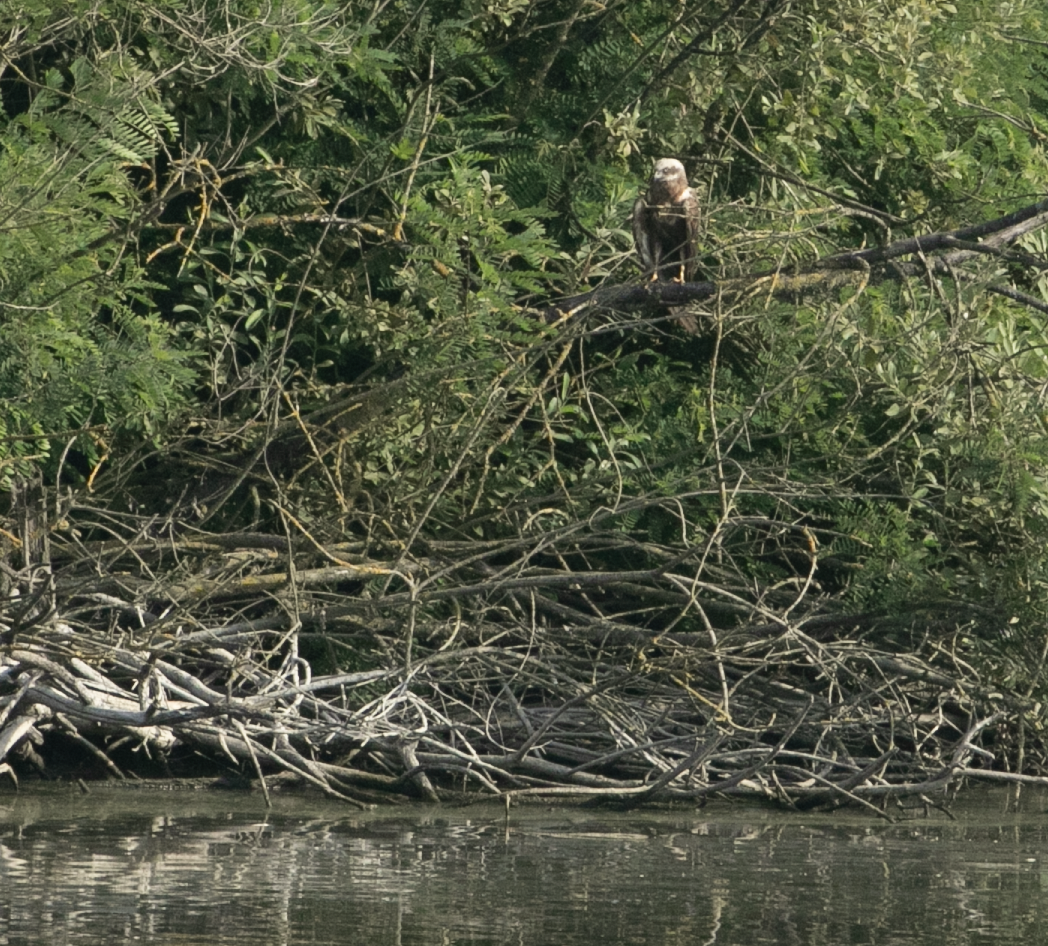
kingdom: Animalia
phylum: Chordata
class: Aves
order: Accipitriformes
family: Accipitridae
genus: Circus
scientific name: Circus aeruginosus
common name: Western marsh harrier
